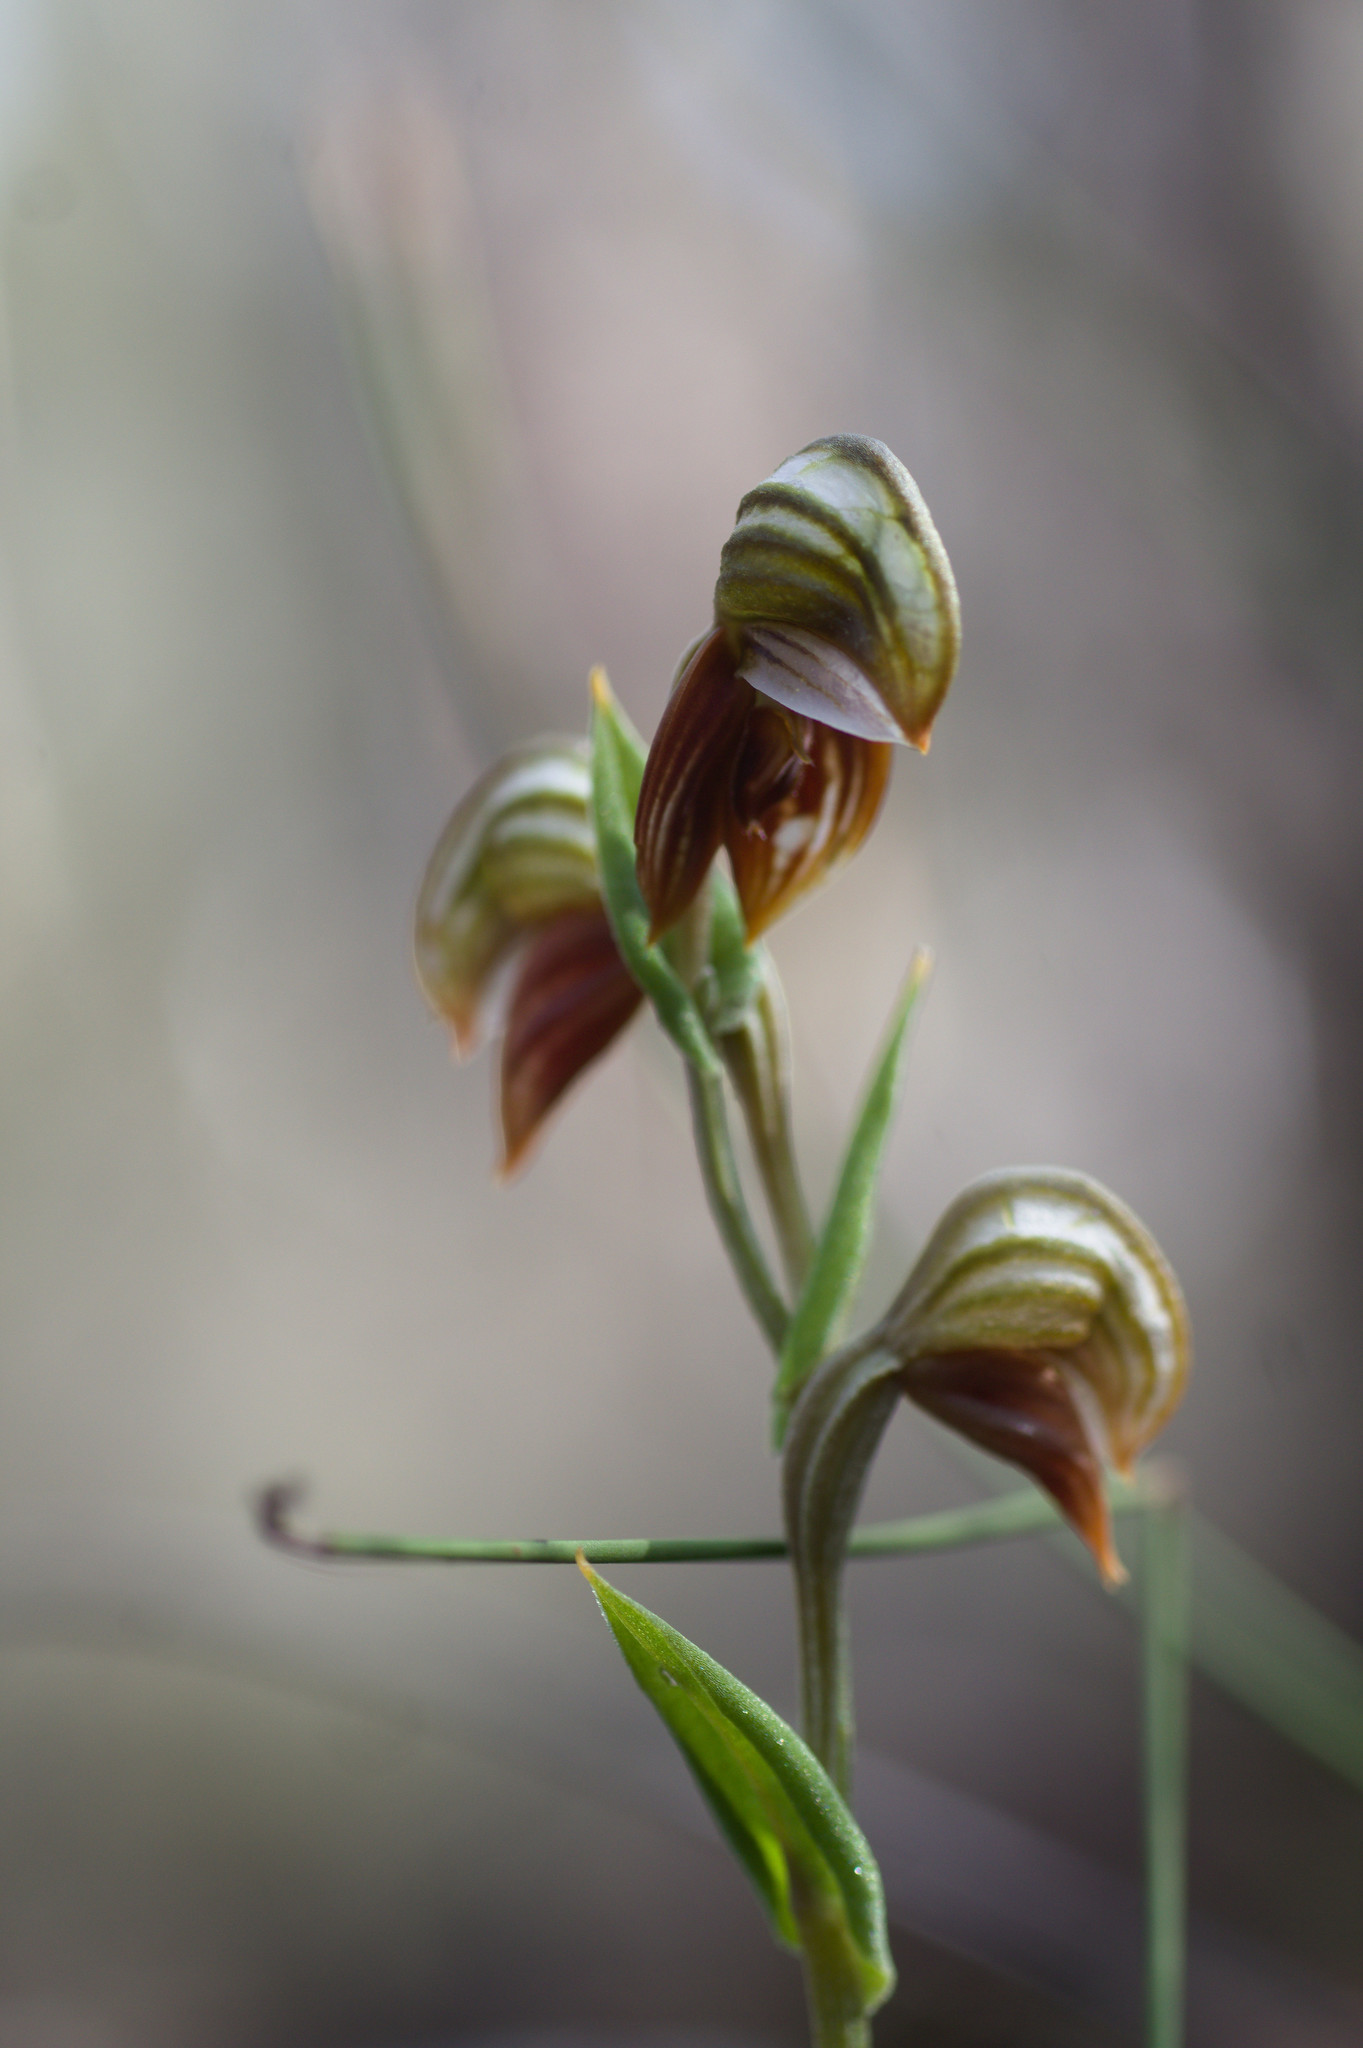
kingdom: Plantae
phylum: Tracheophyta
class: Liliopsida
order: Asparagales
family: Orchidaceae
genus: Pterostylis
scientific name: Pterostylis sanguinea
